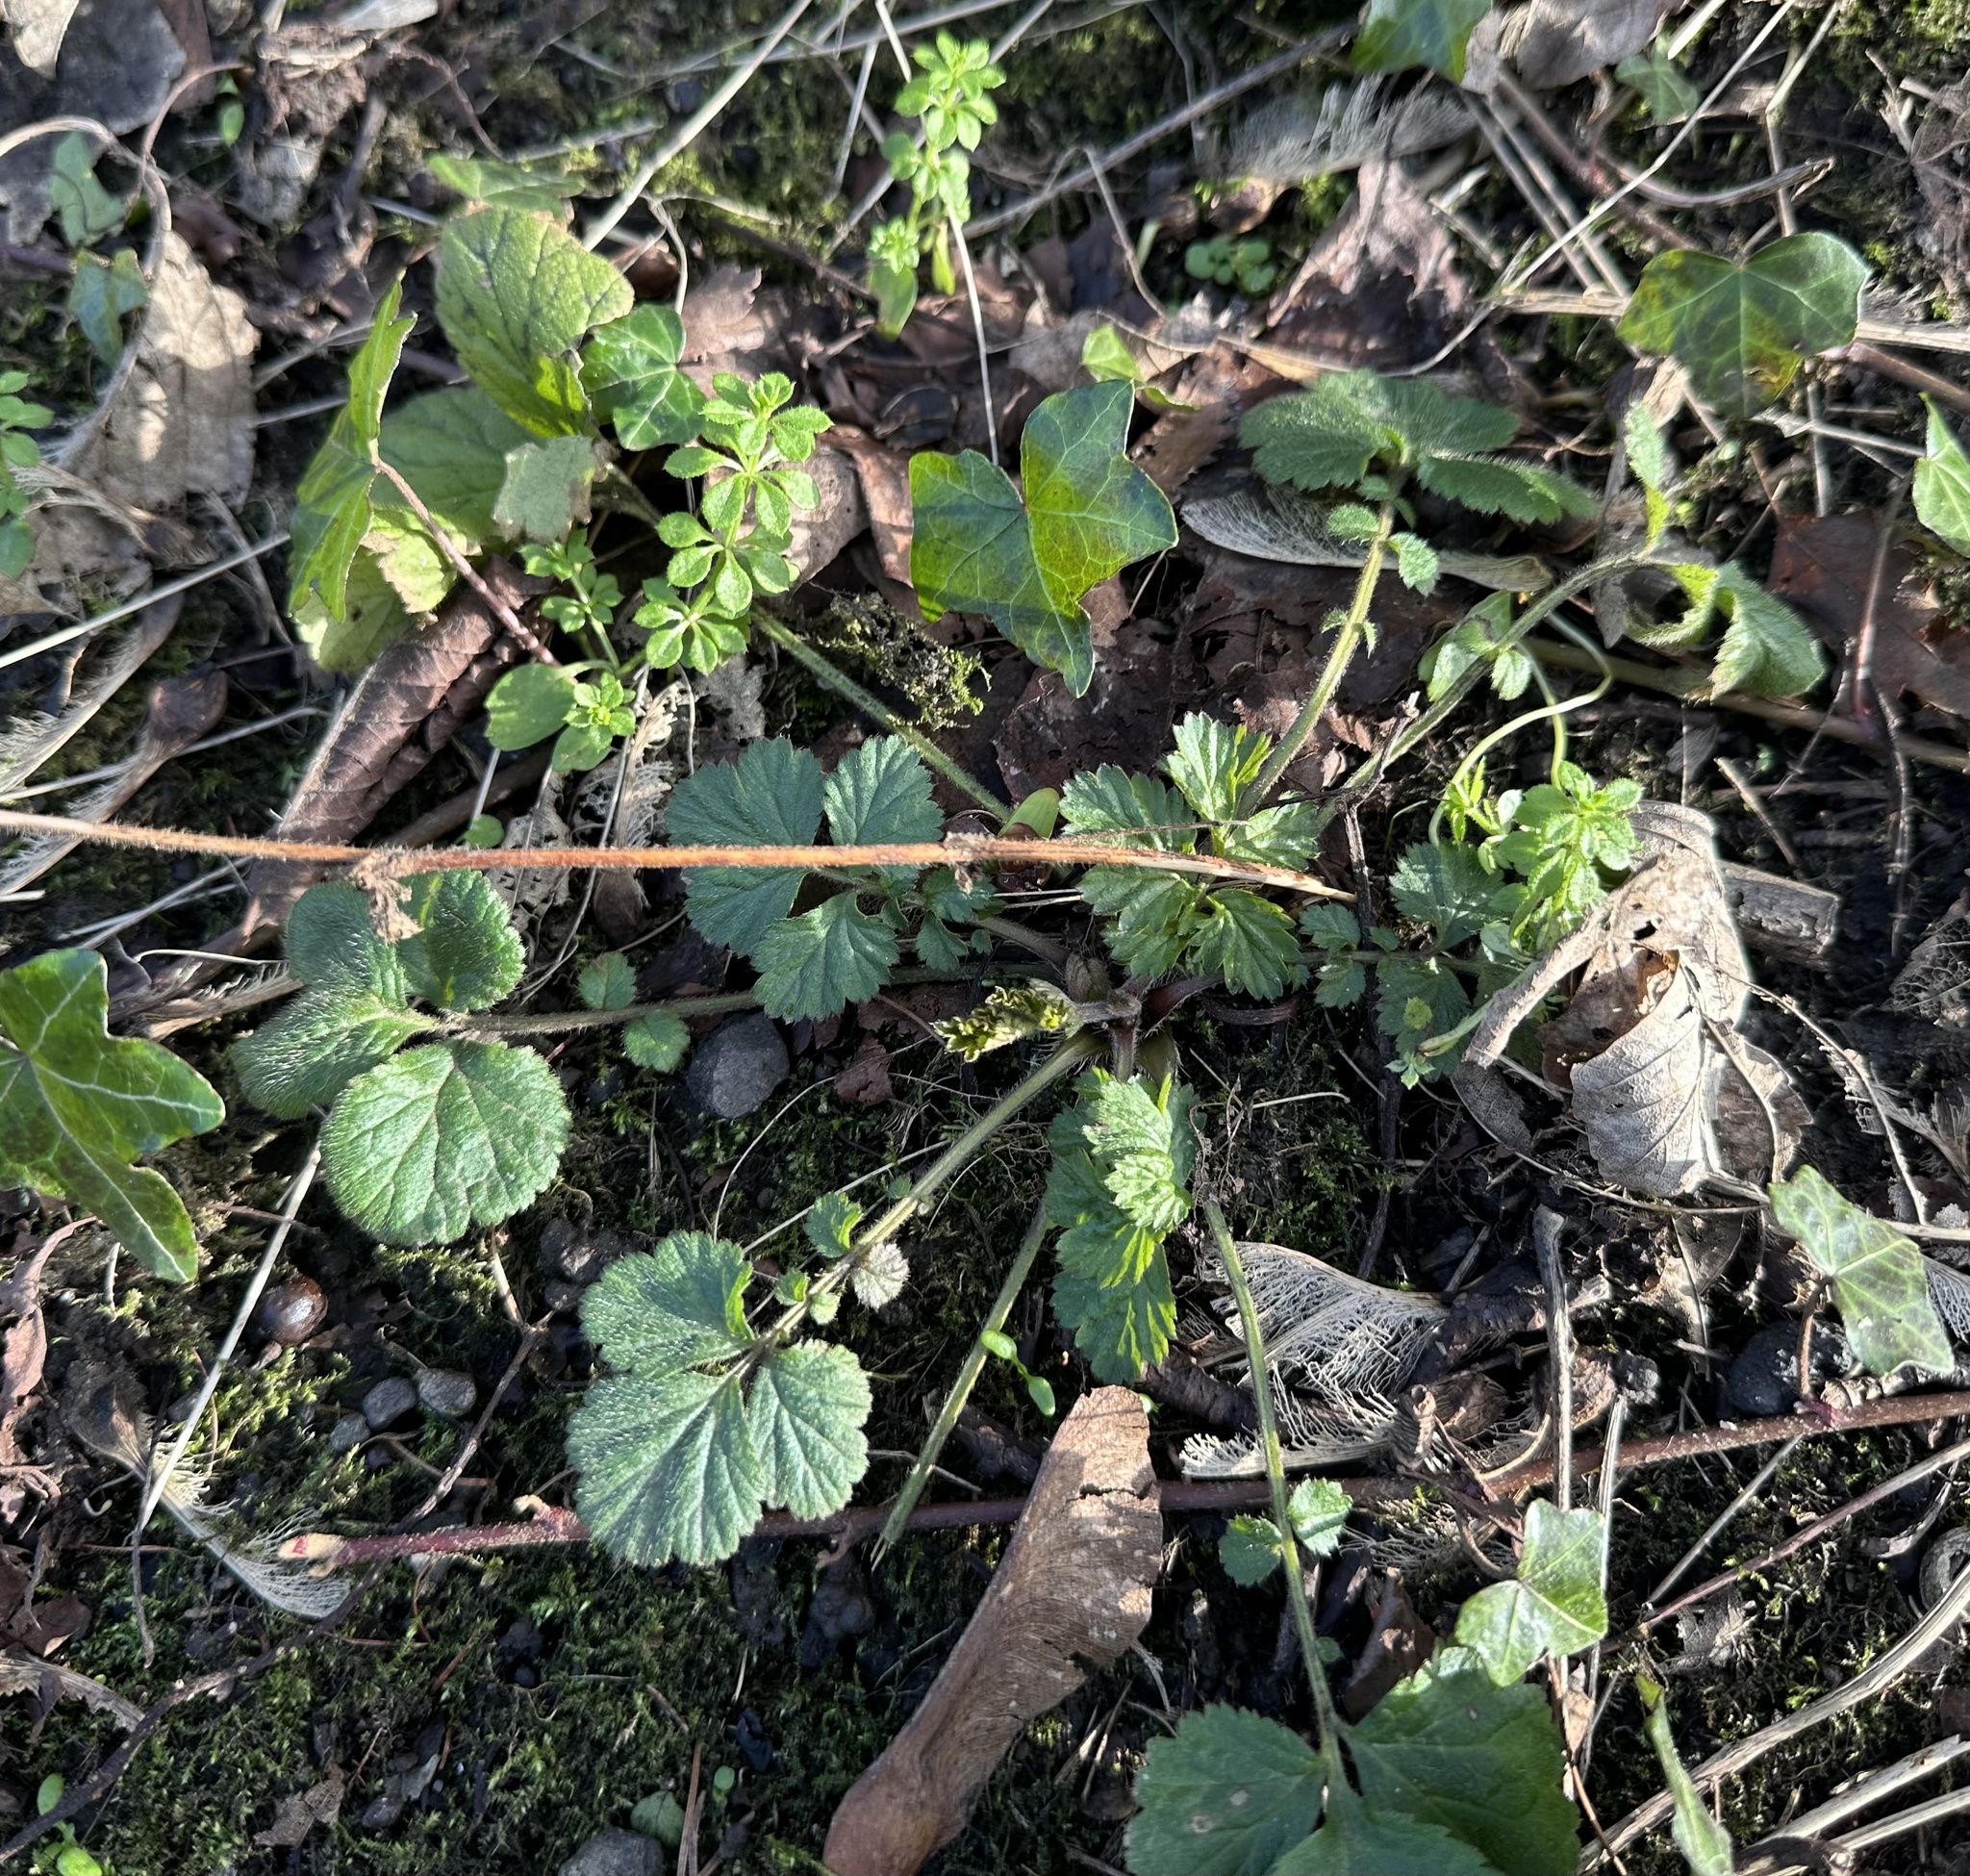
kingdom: Plantae
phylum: Tracheophyta
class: Magnoliopsida
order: Rosales
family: Rosaceae
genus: Geum
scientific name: Geum urbanum
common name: Wood avens
